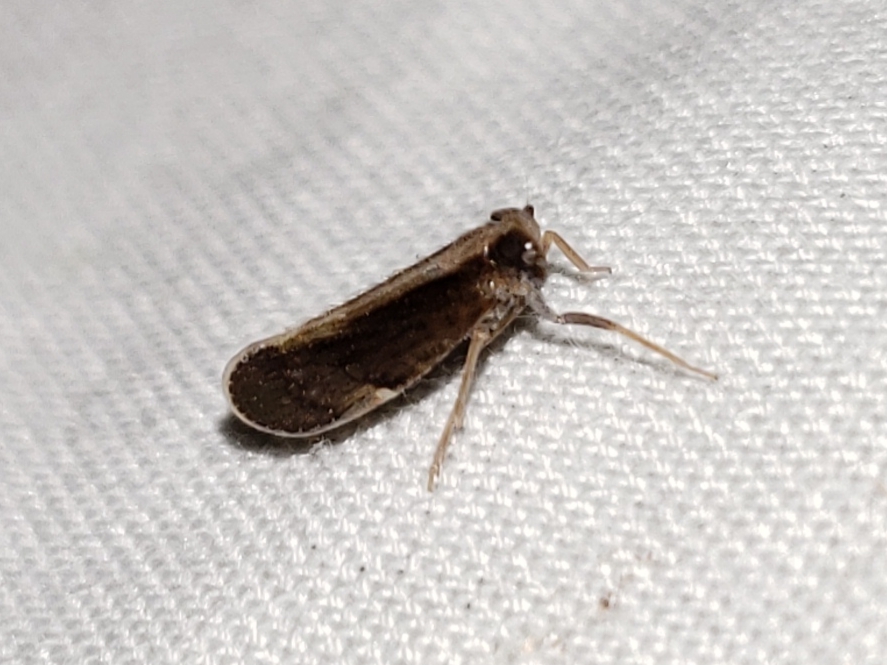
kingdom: Animalia
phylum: Arthropoda
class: Insecta
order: Hemiptera
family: Cixiidae
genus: Pintalia
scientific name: Pintalia delicata
